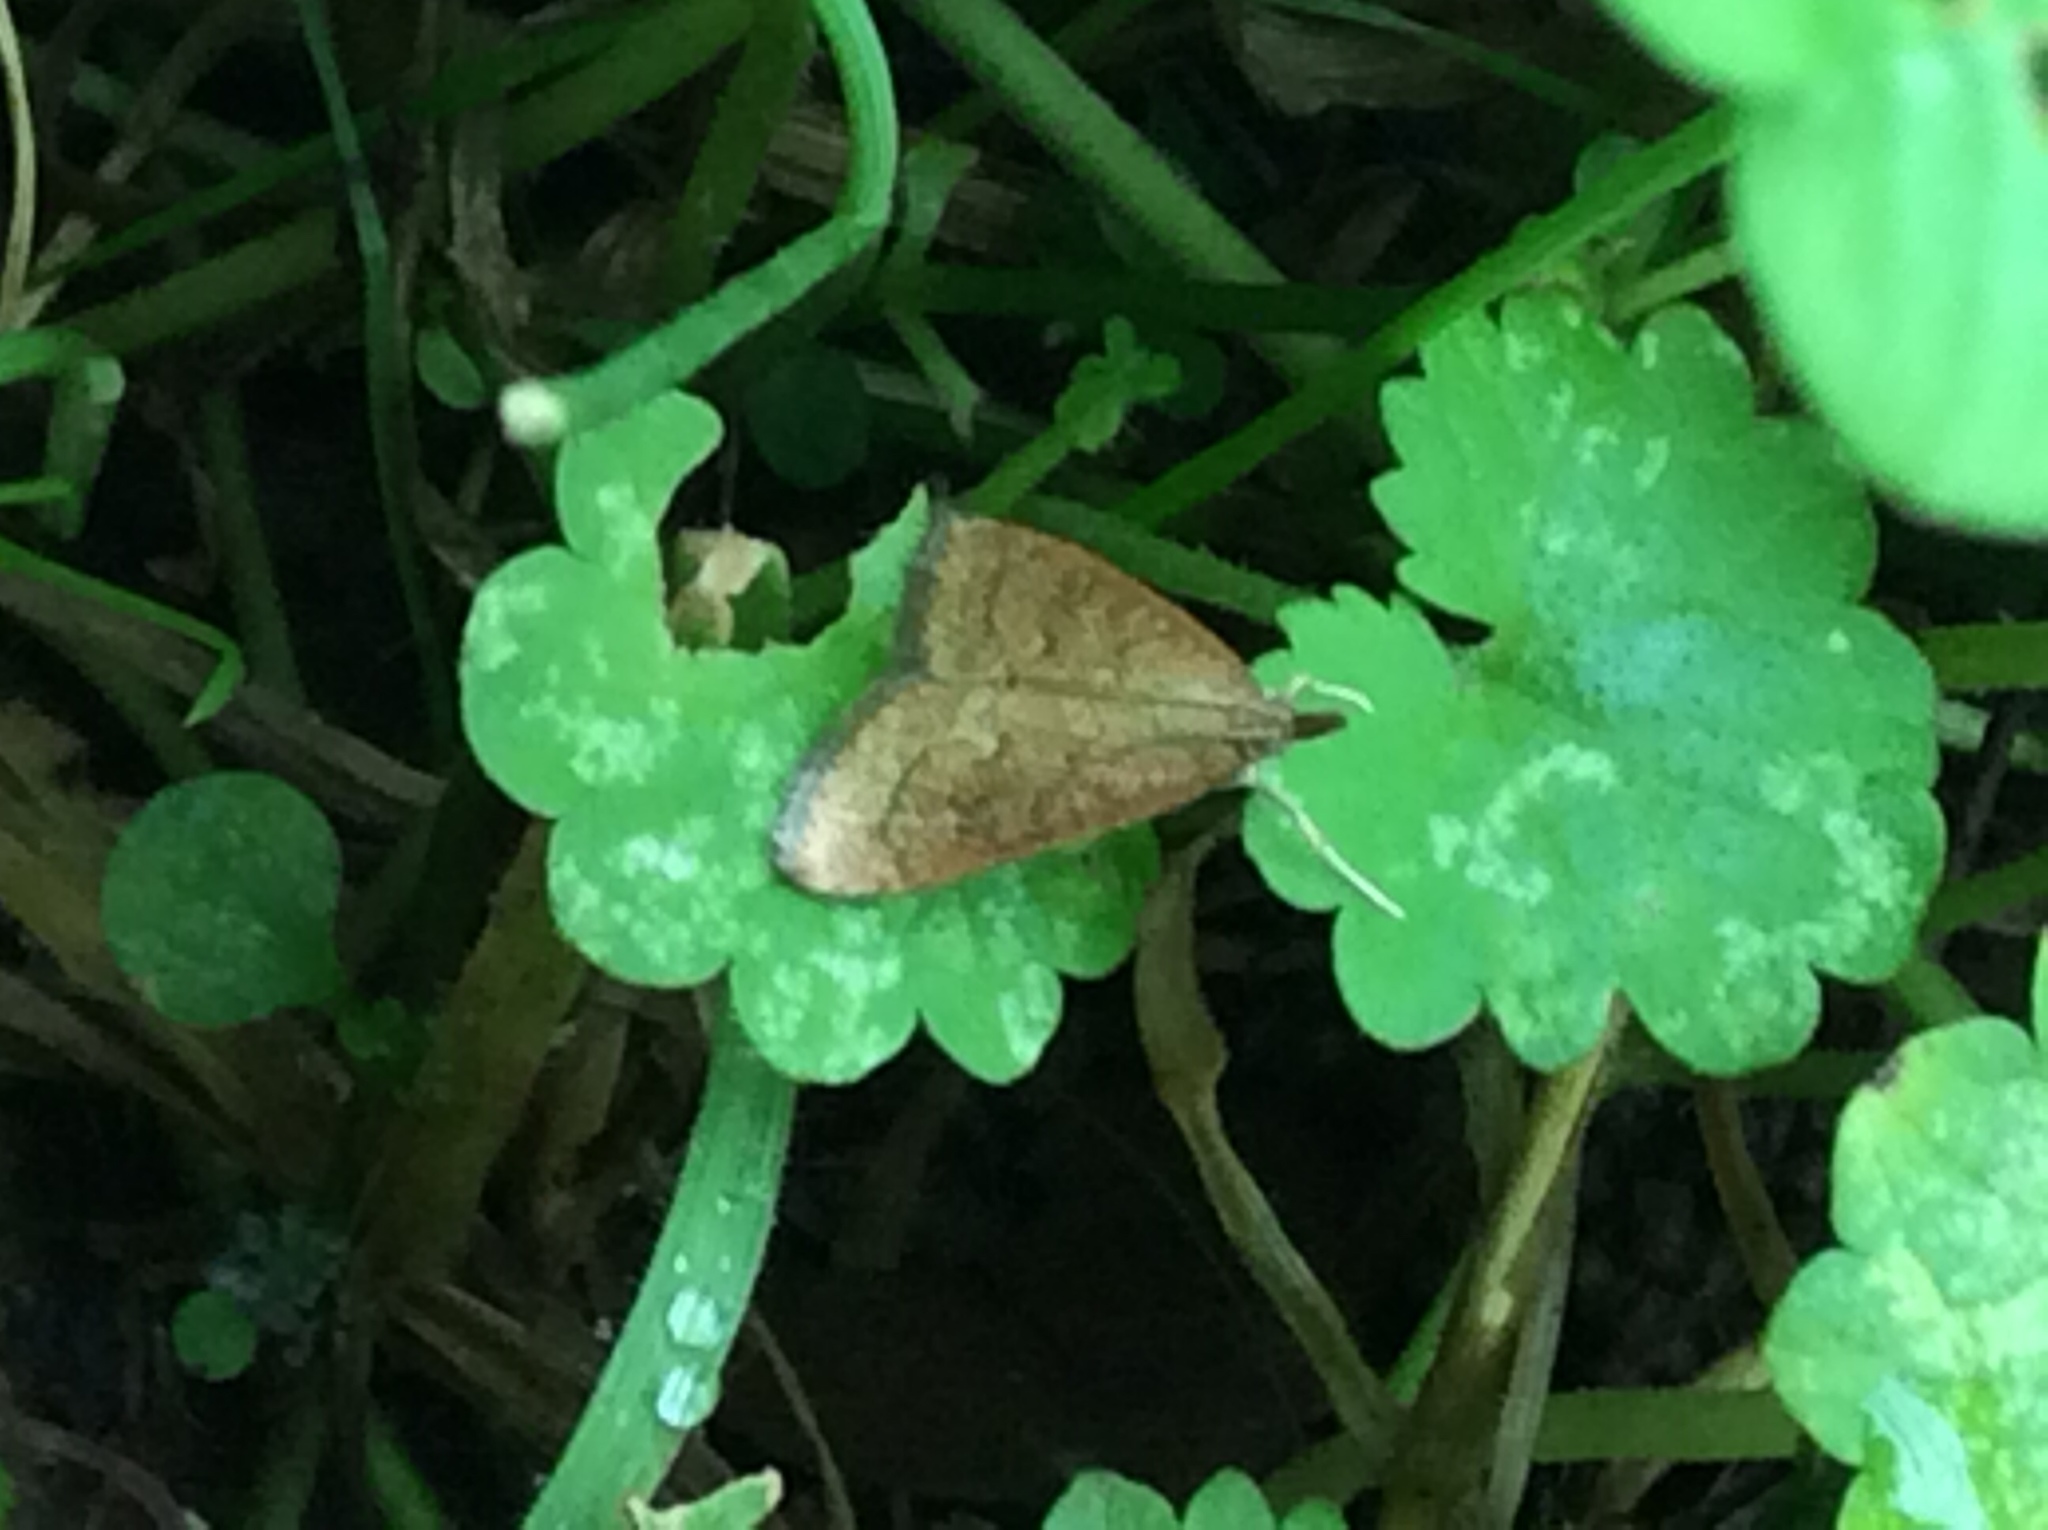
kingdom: Animalia
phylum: Arthropoda
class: Insecta
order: Lepidoptera
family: Crambidae
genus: Udea
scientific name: Udea rubigalis
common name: Celery leaftier moth
